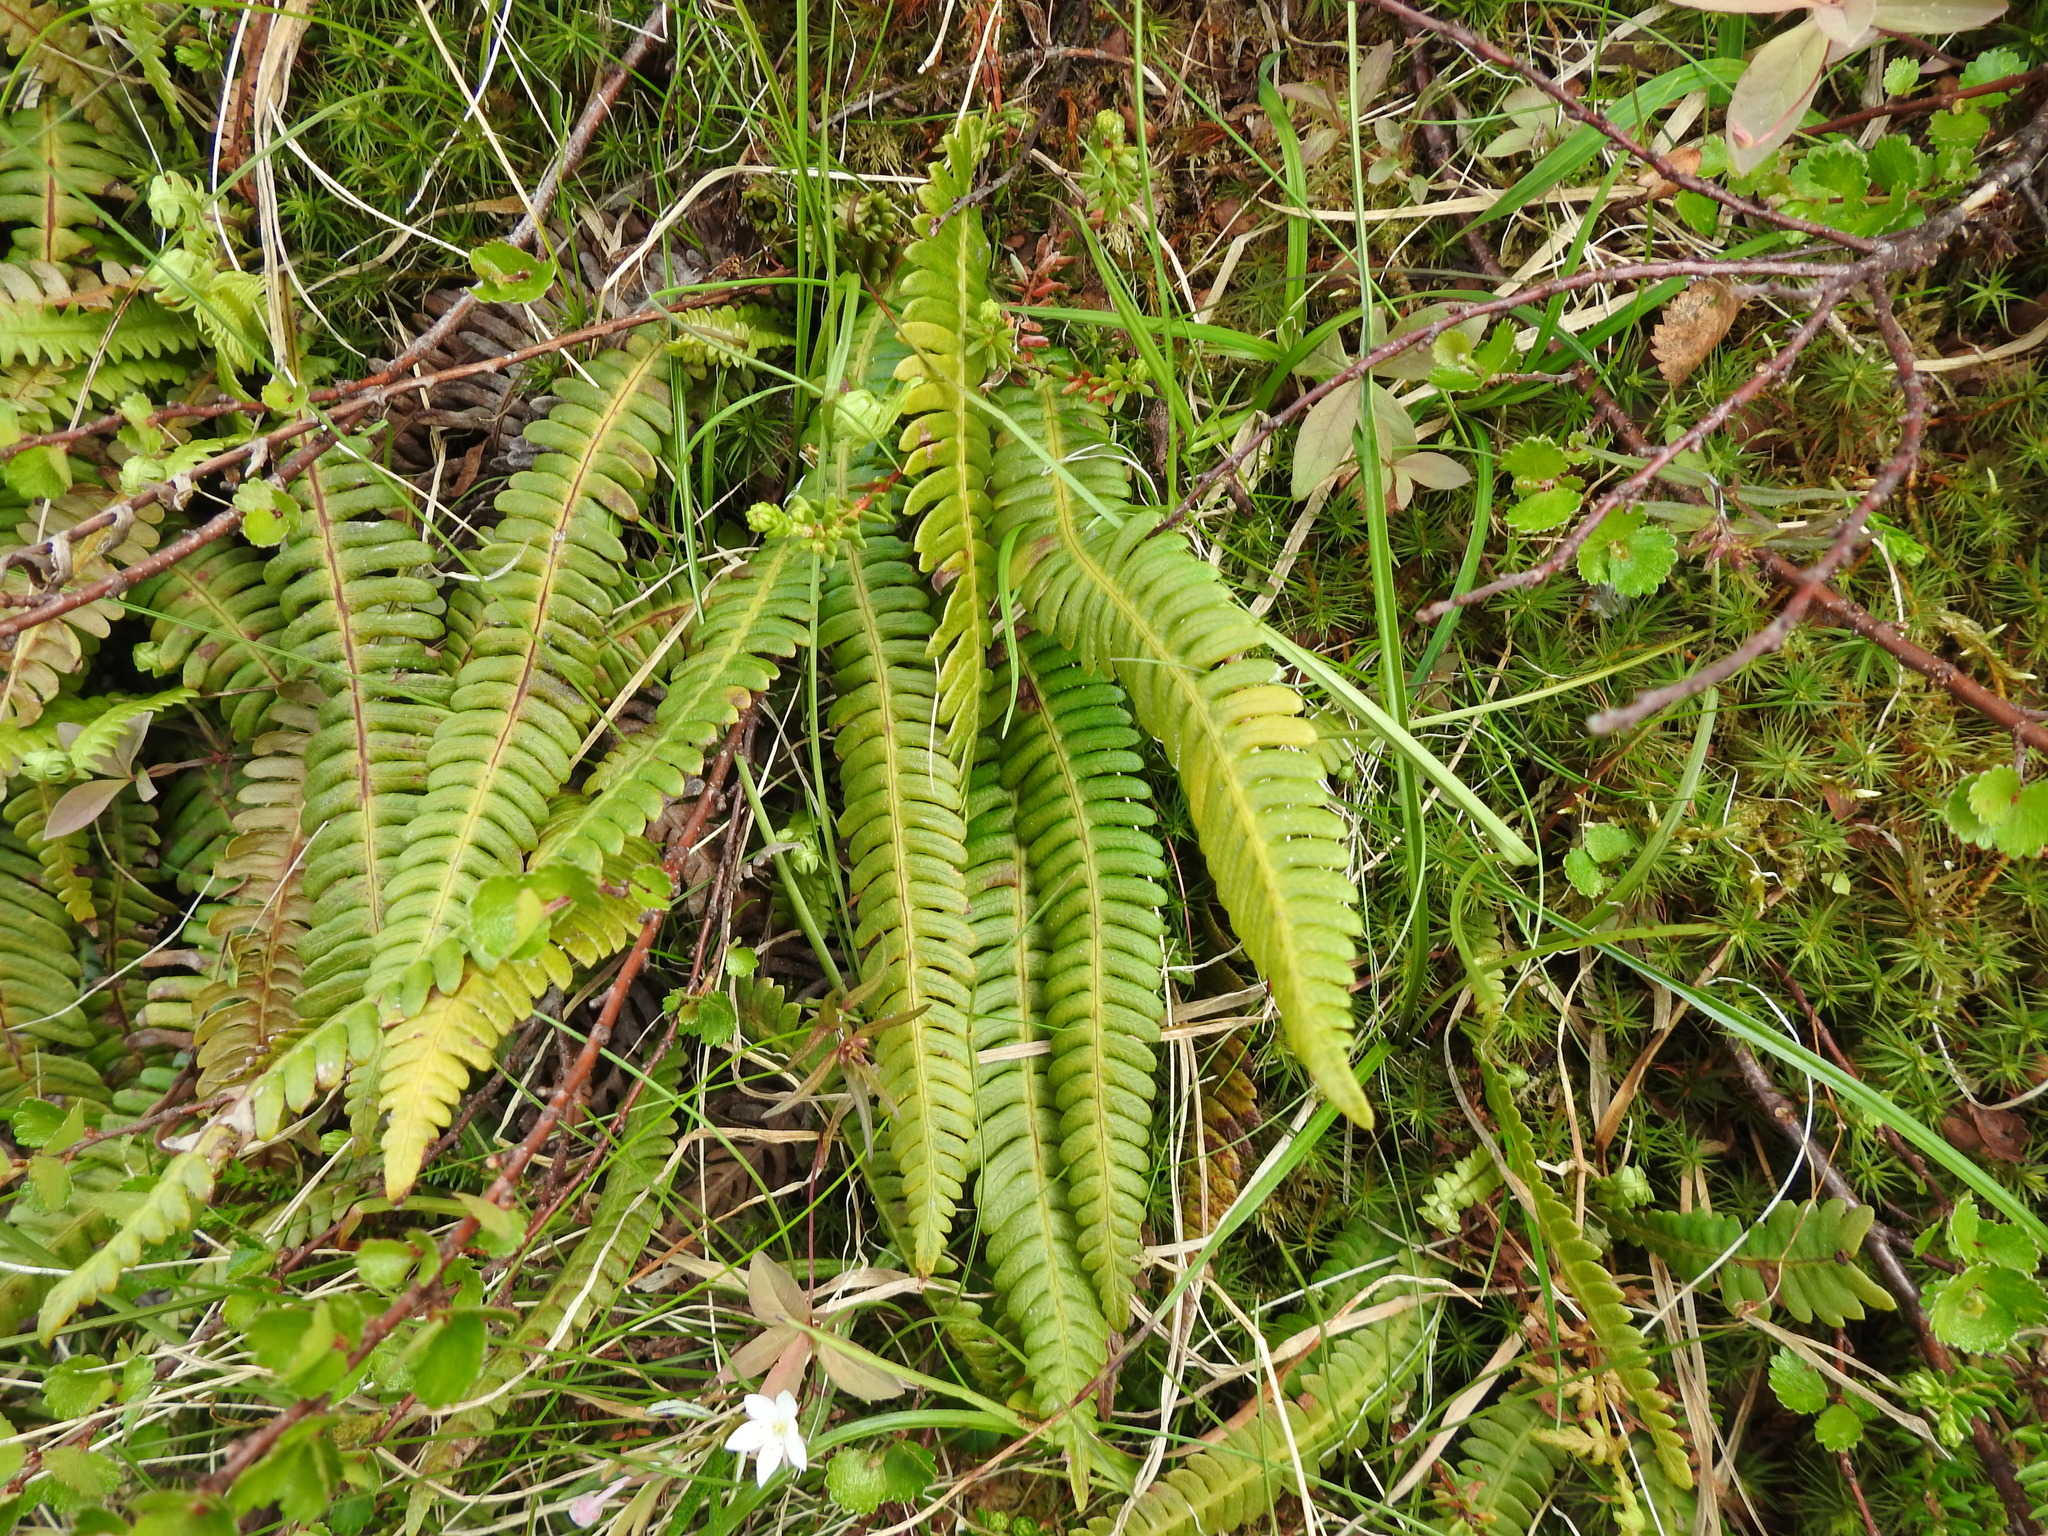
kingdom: Plantae
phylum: Tracheophyta
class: Polypodiopsida
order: Polypodiales
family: Blechnaceae
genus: Struthiopteris
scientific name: Struthiopteris spicant
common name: Deer fern
